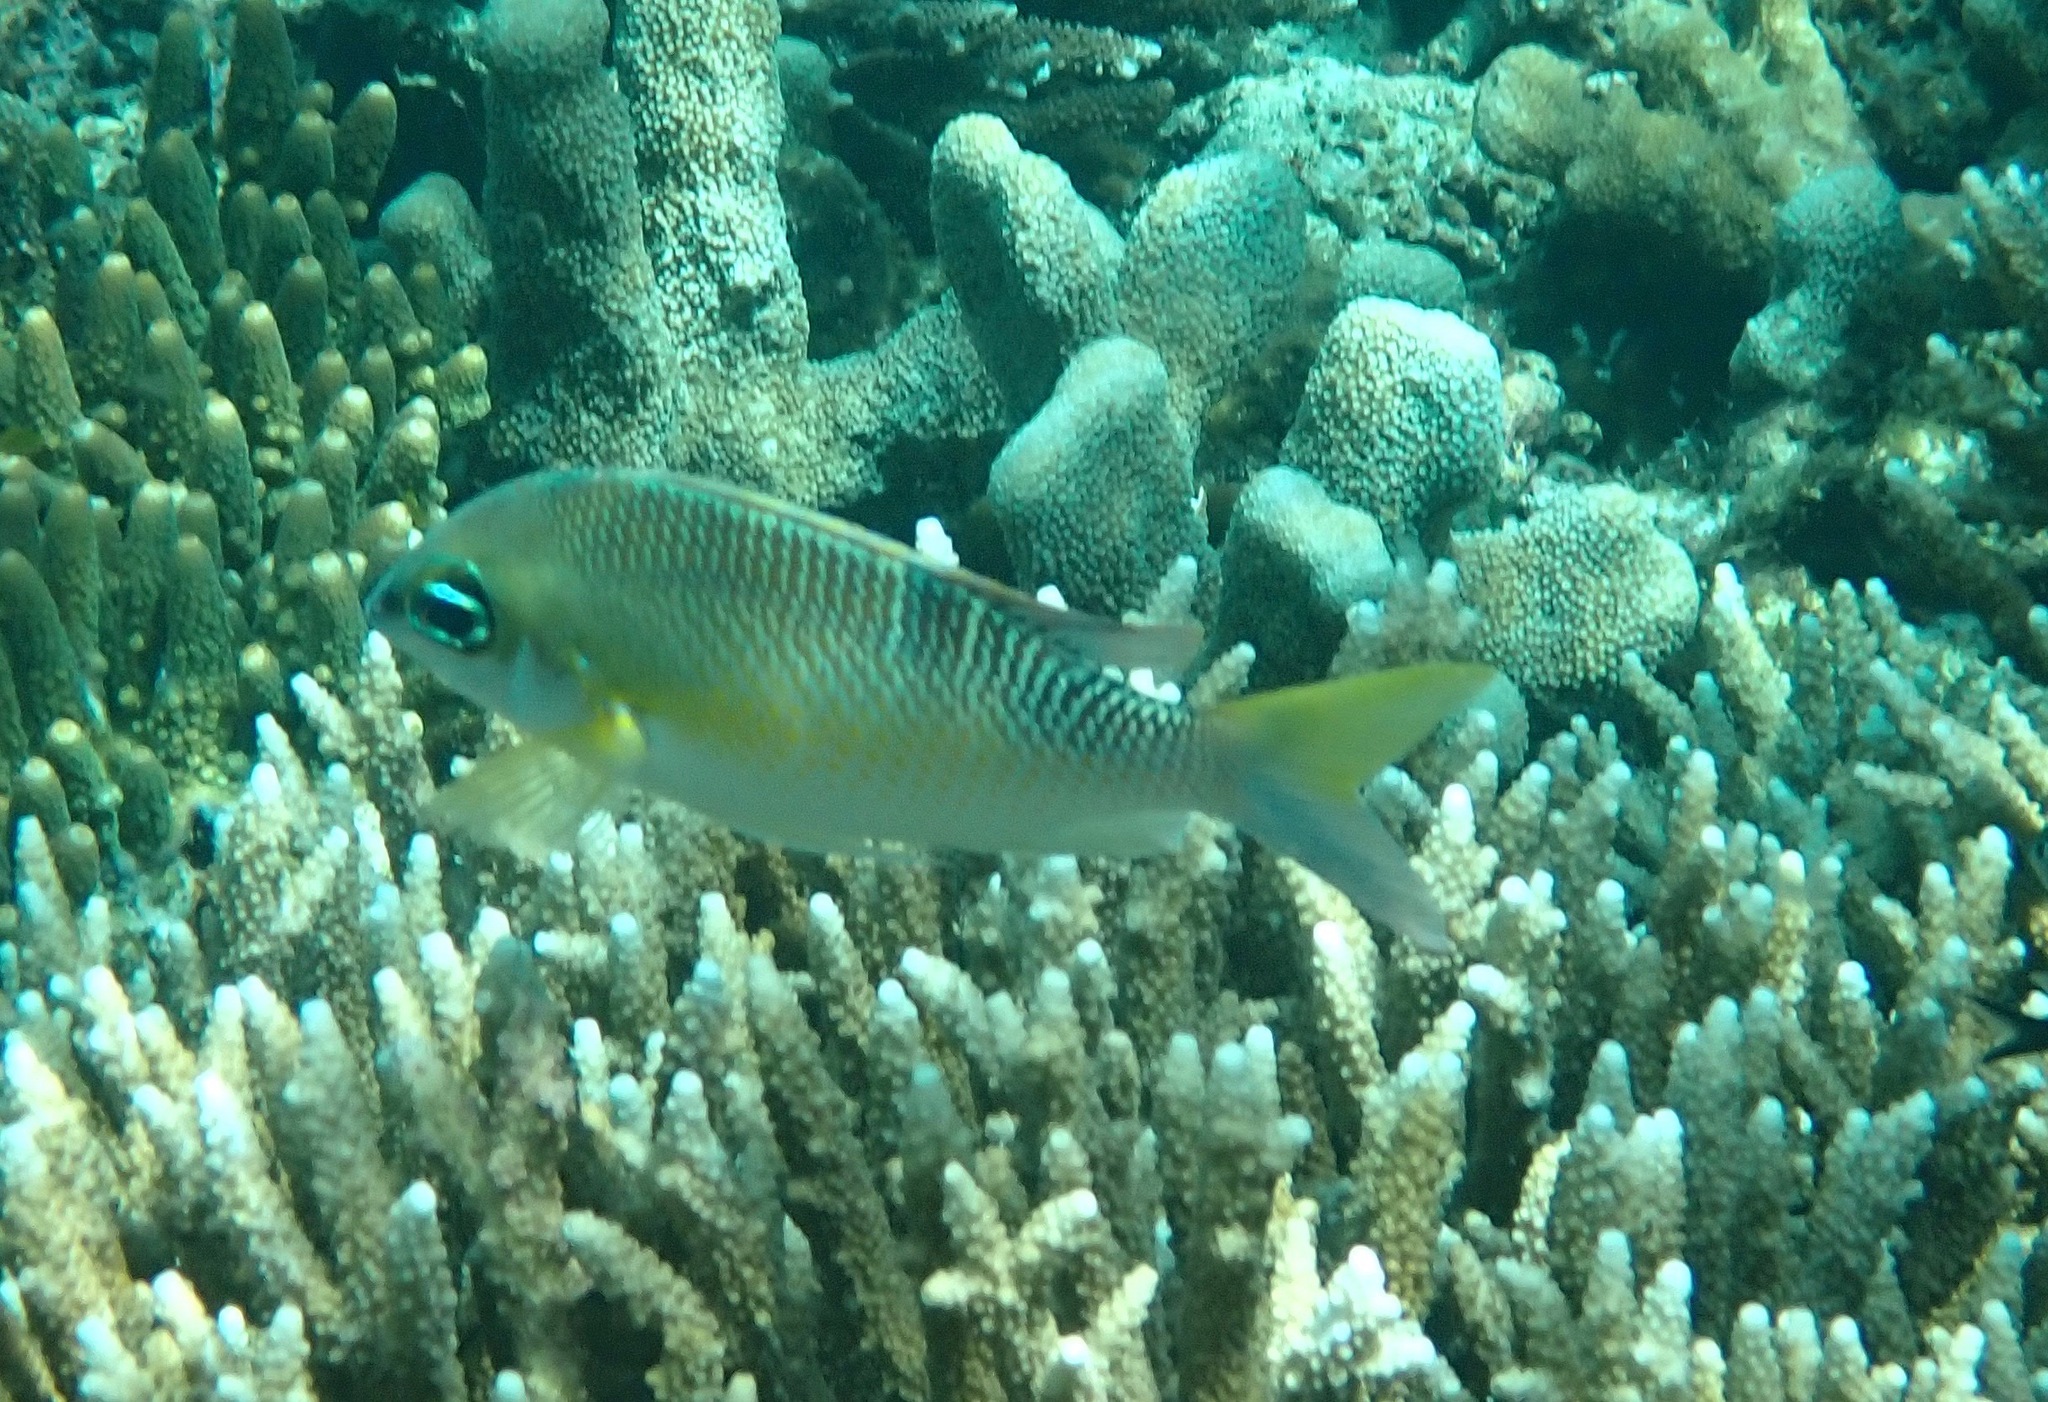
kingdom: Animalia
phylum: Chordata
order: Perciformes
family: Nemipteridae
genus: Scolopsis
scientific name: Scolopsis margaritifera
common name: Pearly monocle bream
